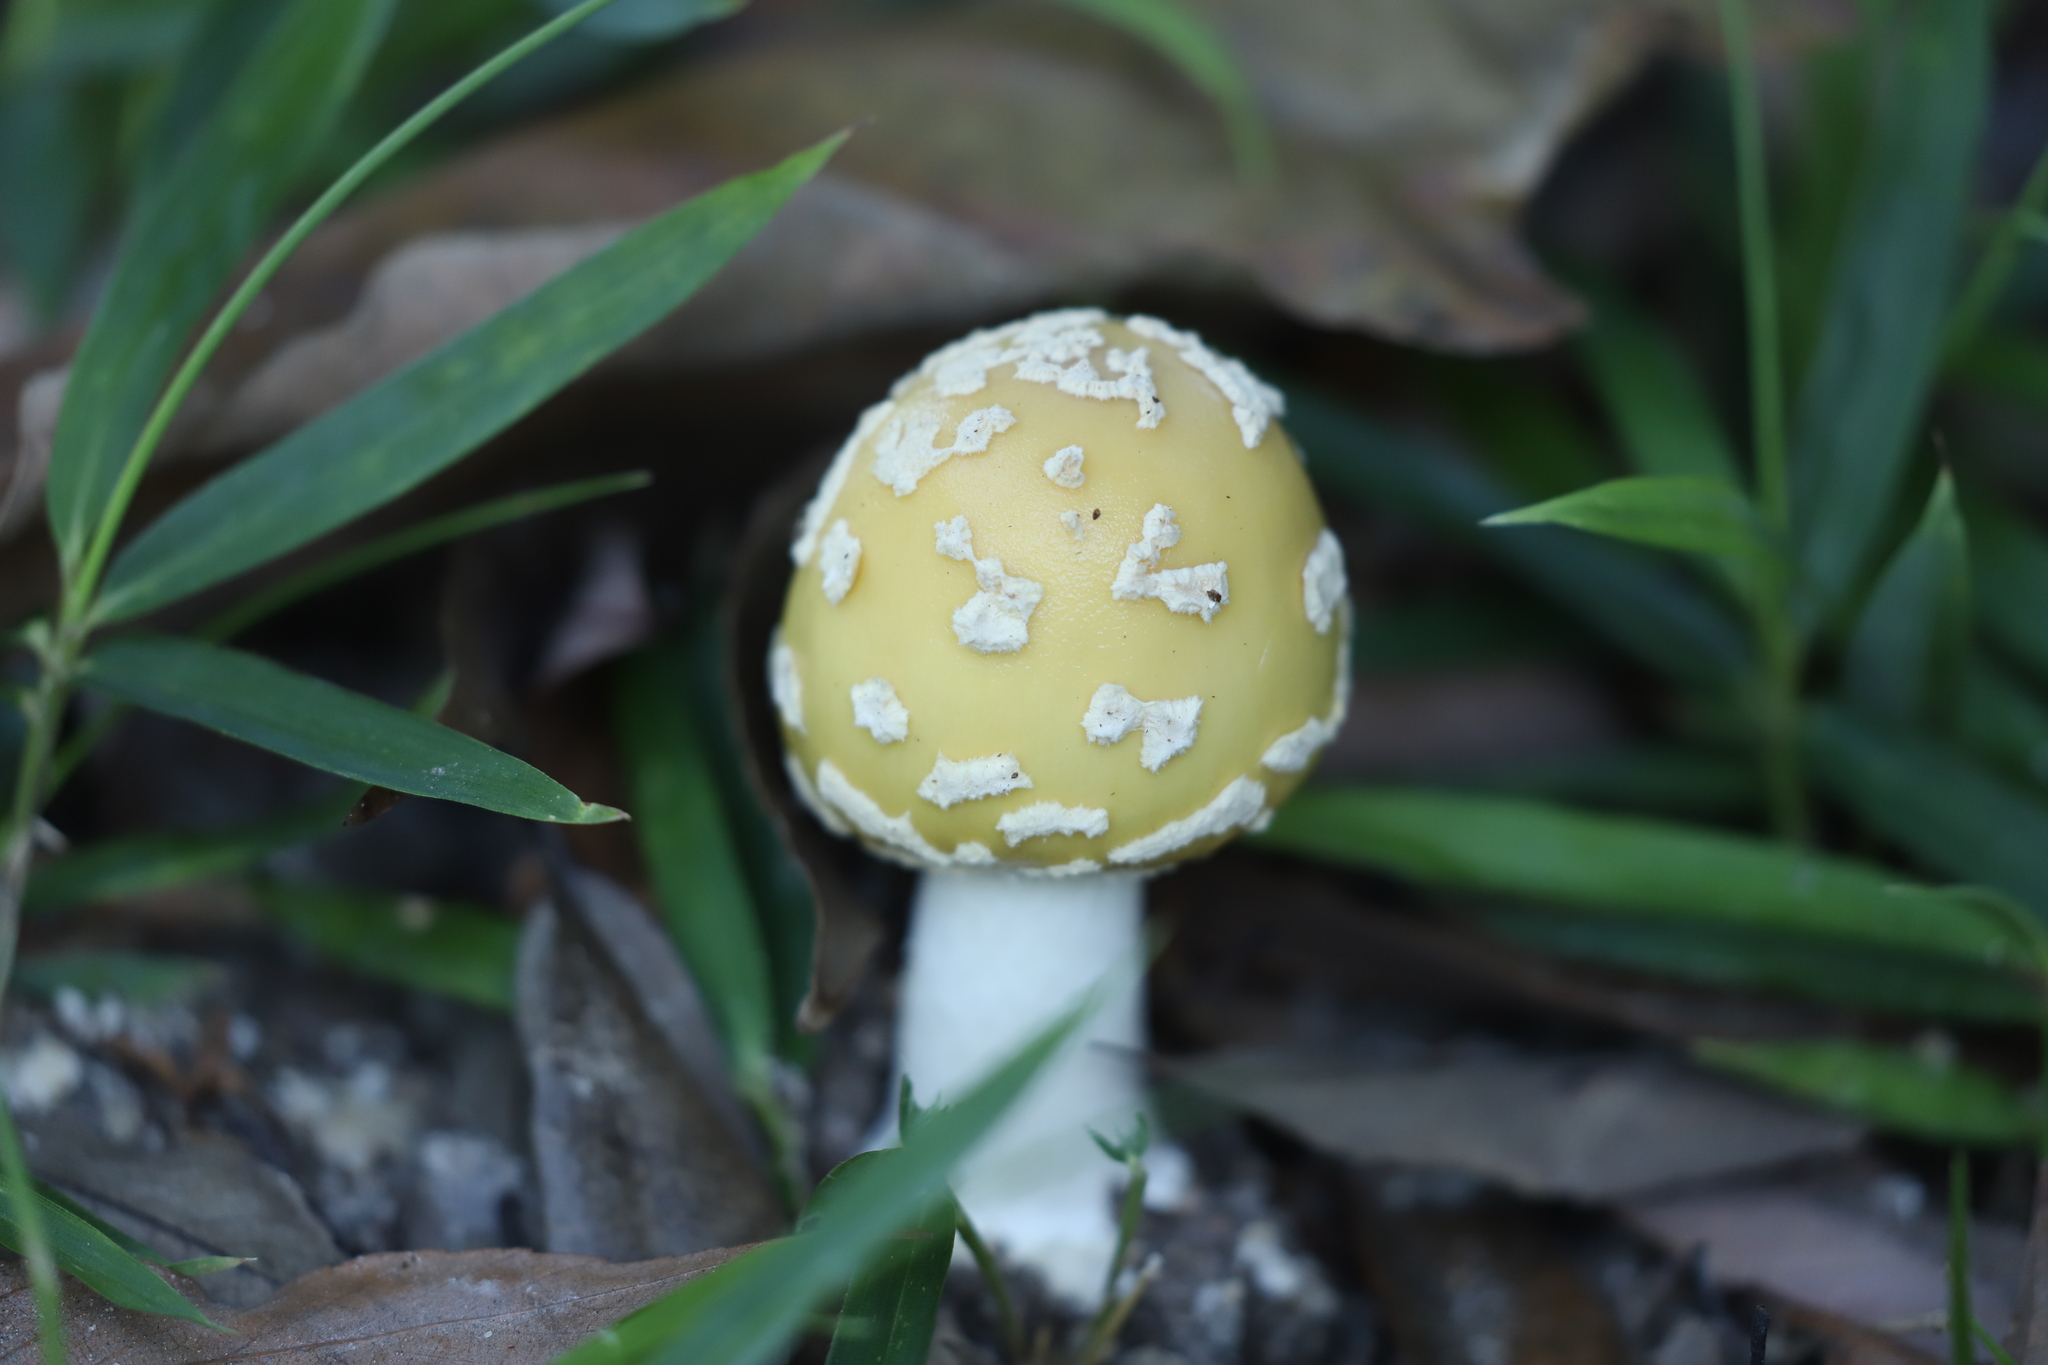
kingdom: Fungi
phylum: Basidiomycota
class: Agaricomycetes
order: Agaricales
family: Amanitaceae
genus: Amanita
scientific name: Amanita orientigemmata
